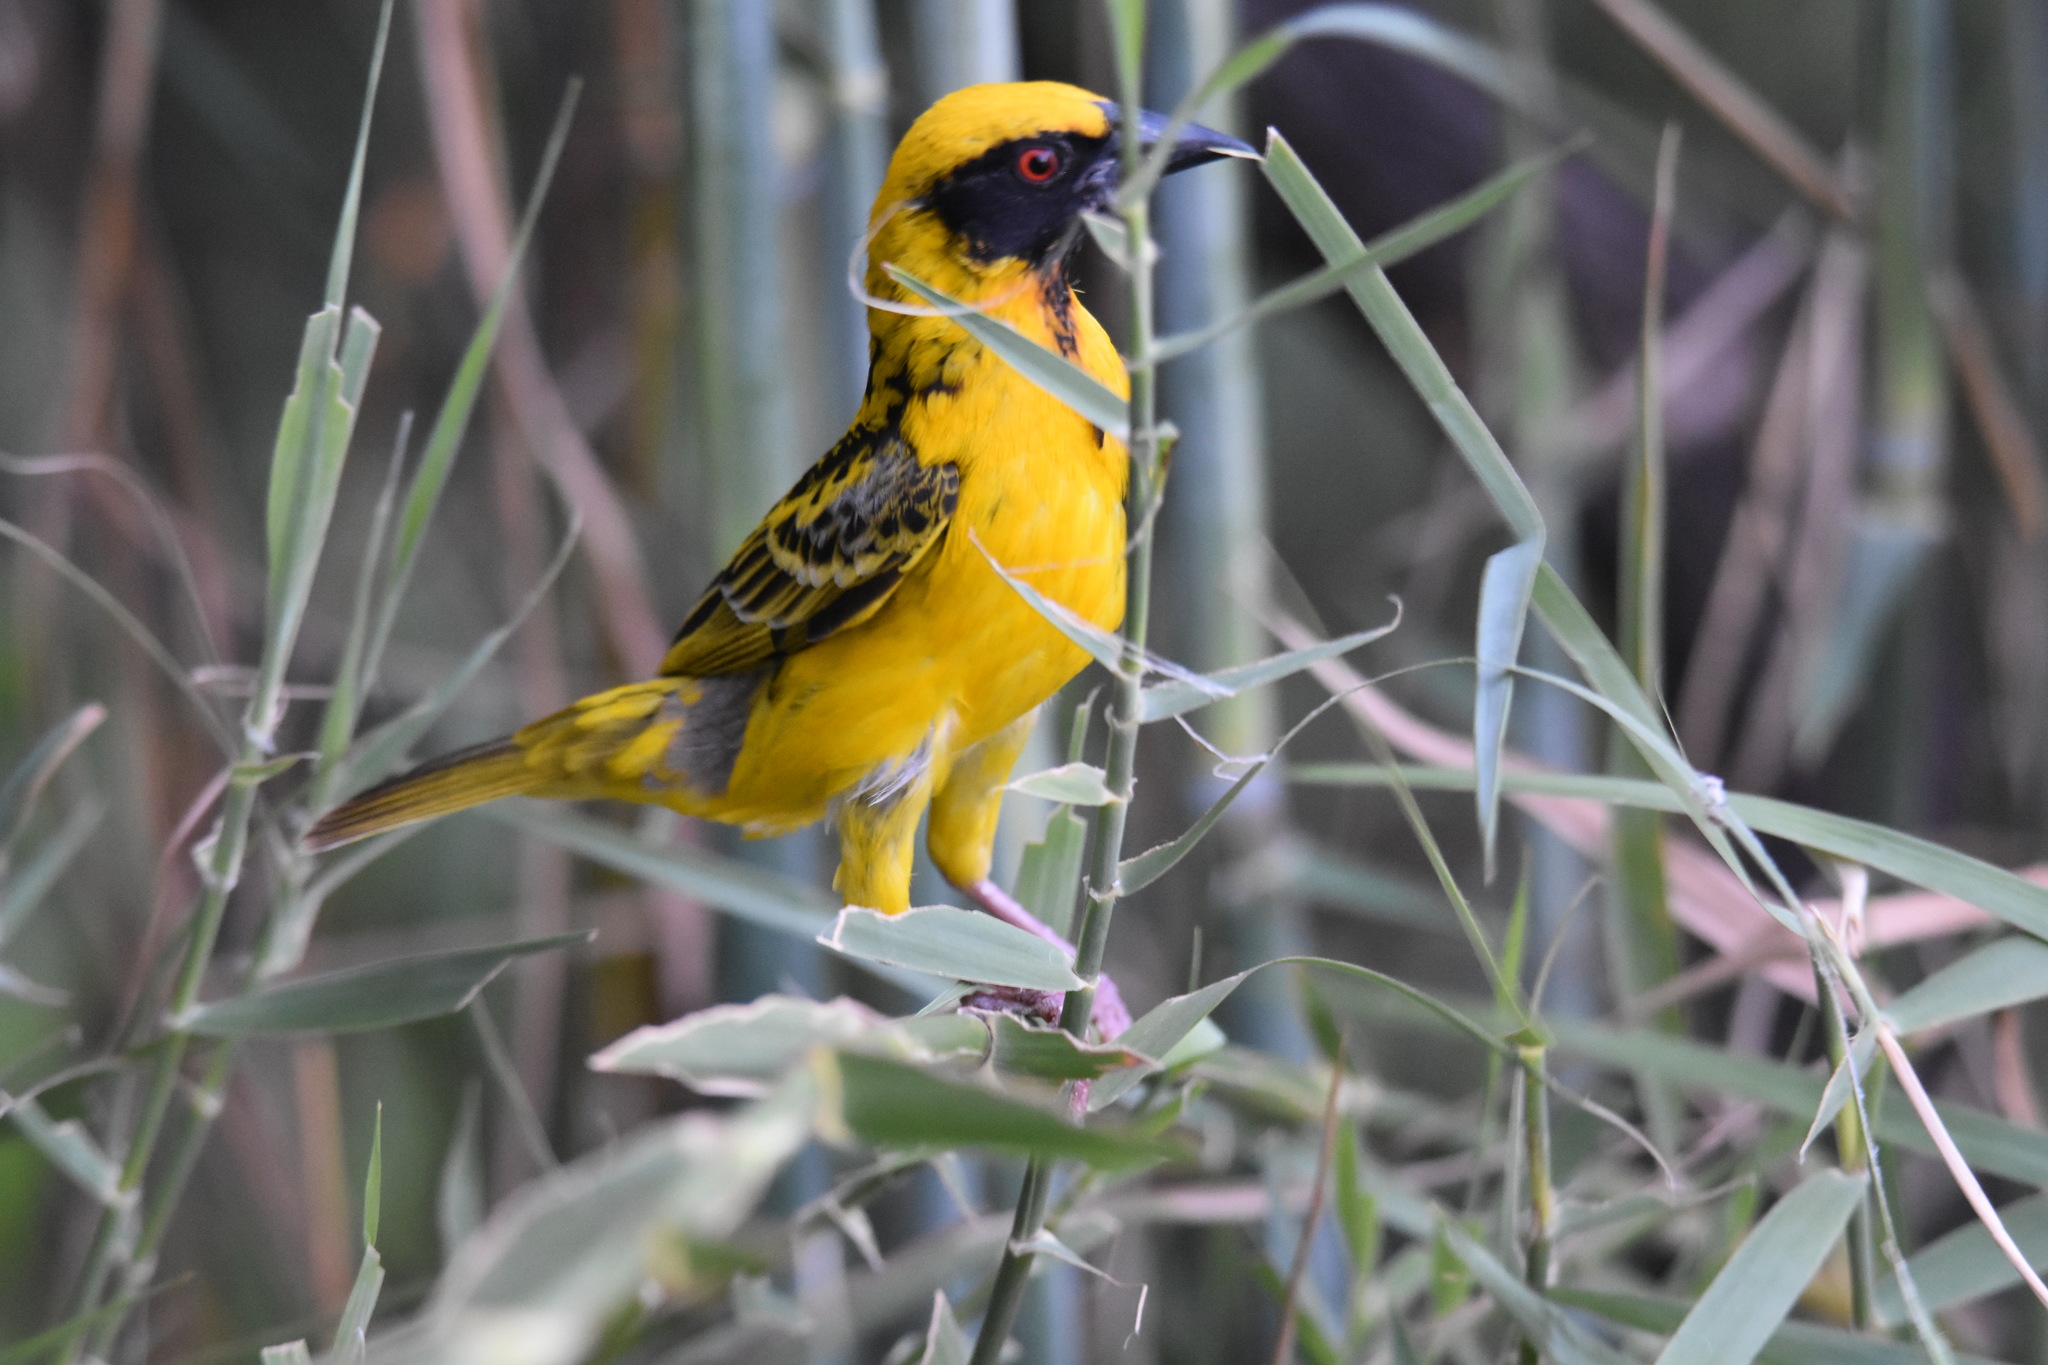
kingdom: Animalia
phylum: Chordata
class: Aves
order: Passeriformes
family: Ploceidae
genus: Ploceus
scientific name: Ploceus cucullatus
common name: Village weaver
